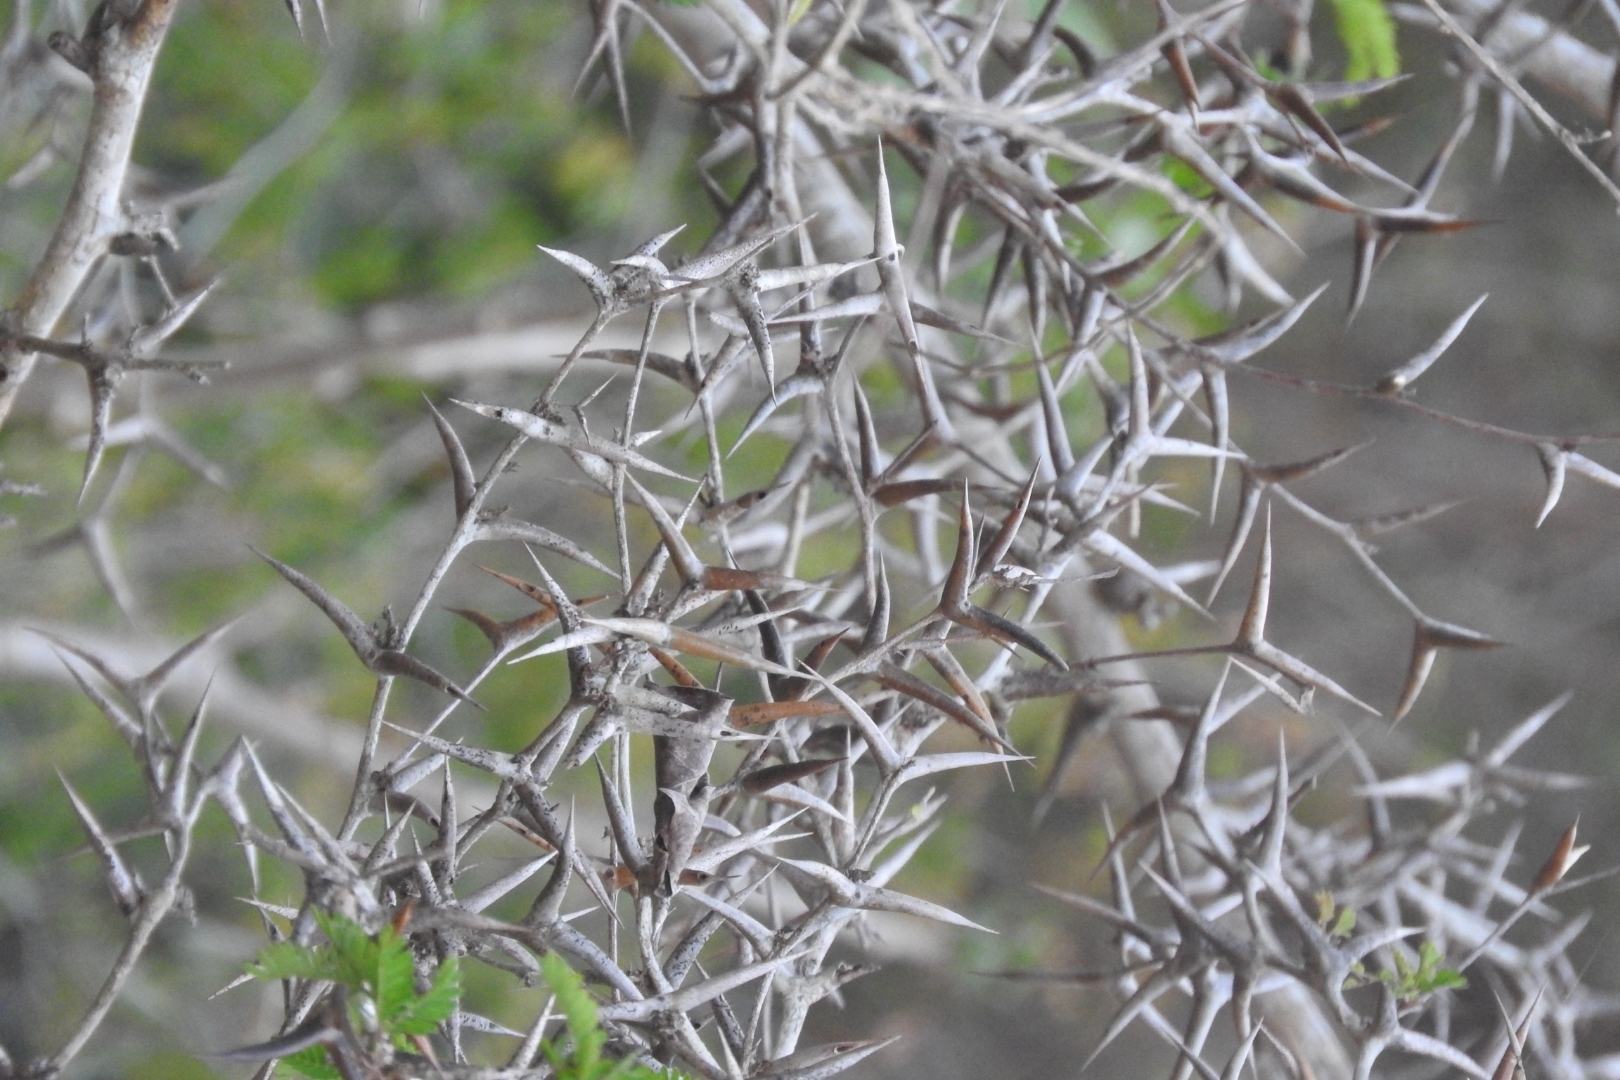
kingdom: Plantae
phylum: Tracheophyta
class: Magnoliopsida
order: Fabales
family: Fabaceae
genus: Vachellia
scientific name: Vachellia cornigera
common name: Bullhorn wattle
